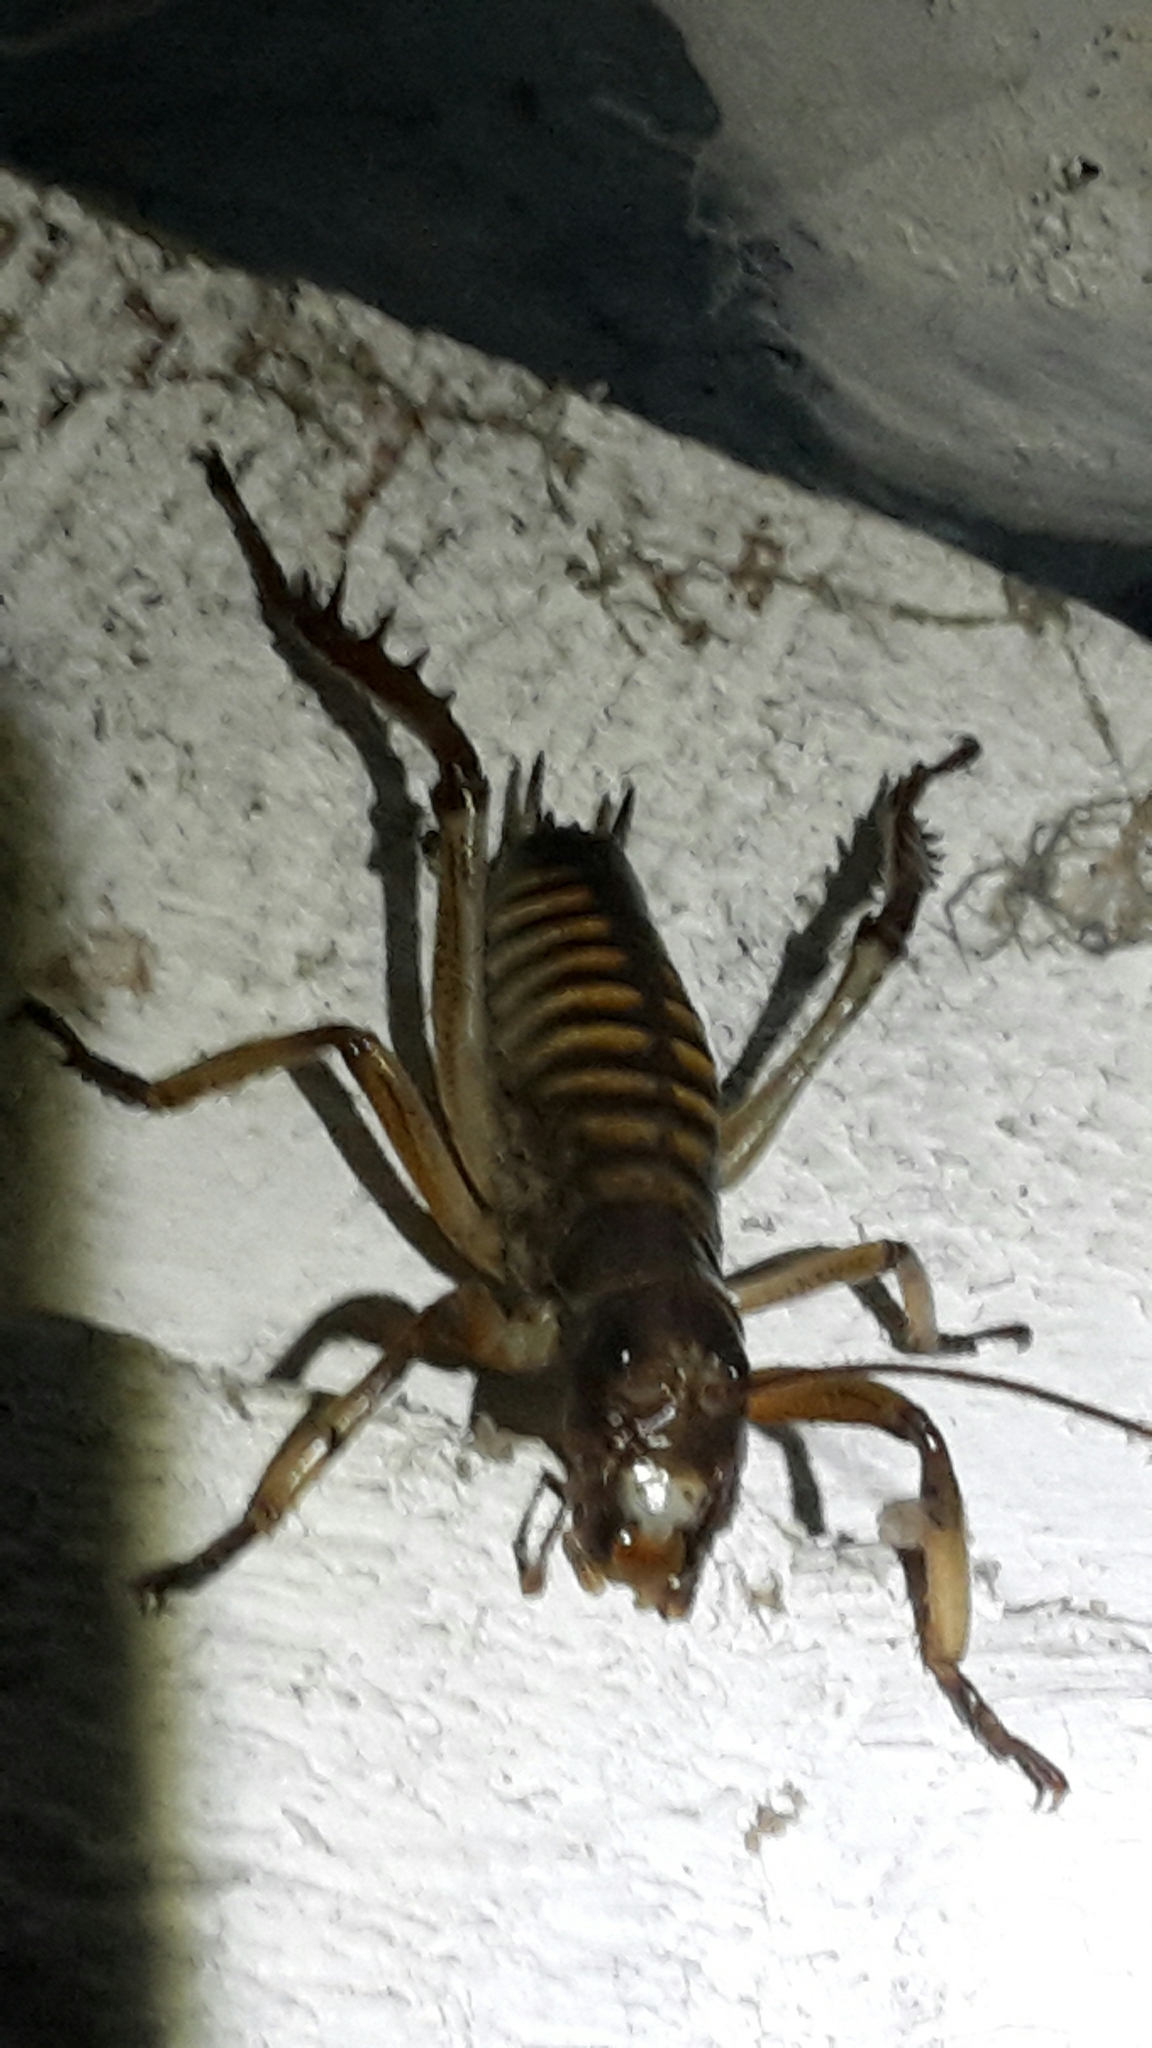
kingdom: Animalia
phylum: Arthropoda
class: Insecta
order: Orthoptera
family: Anostostomatidae
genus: Hemideina
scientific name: Hemideina crassidens
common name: Wellington tree weta
